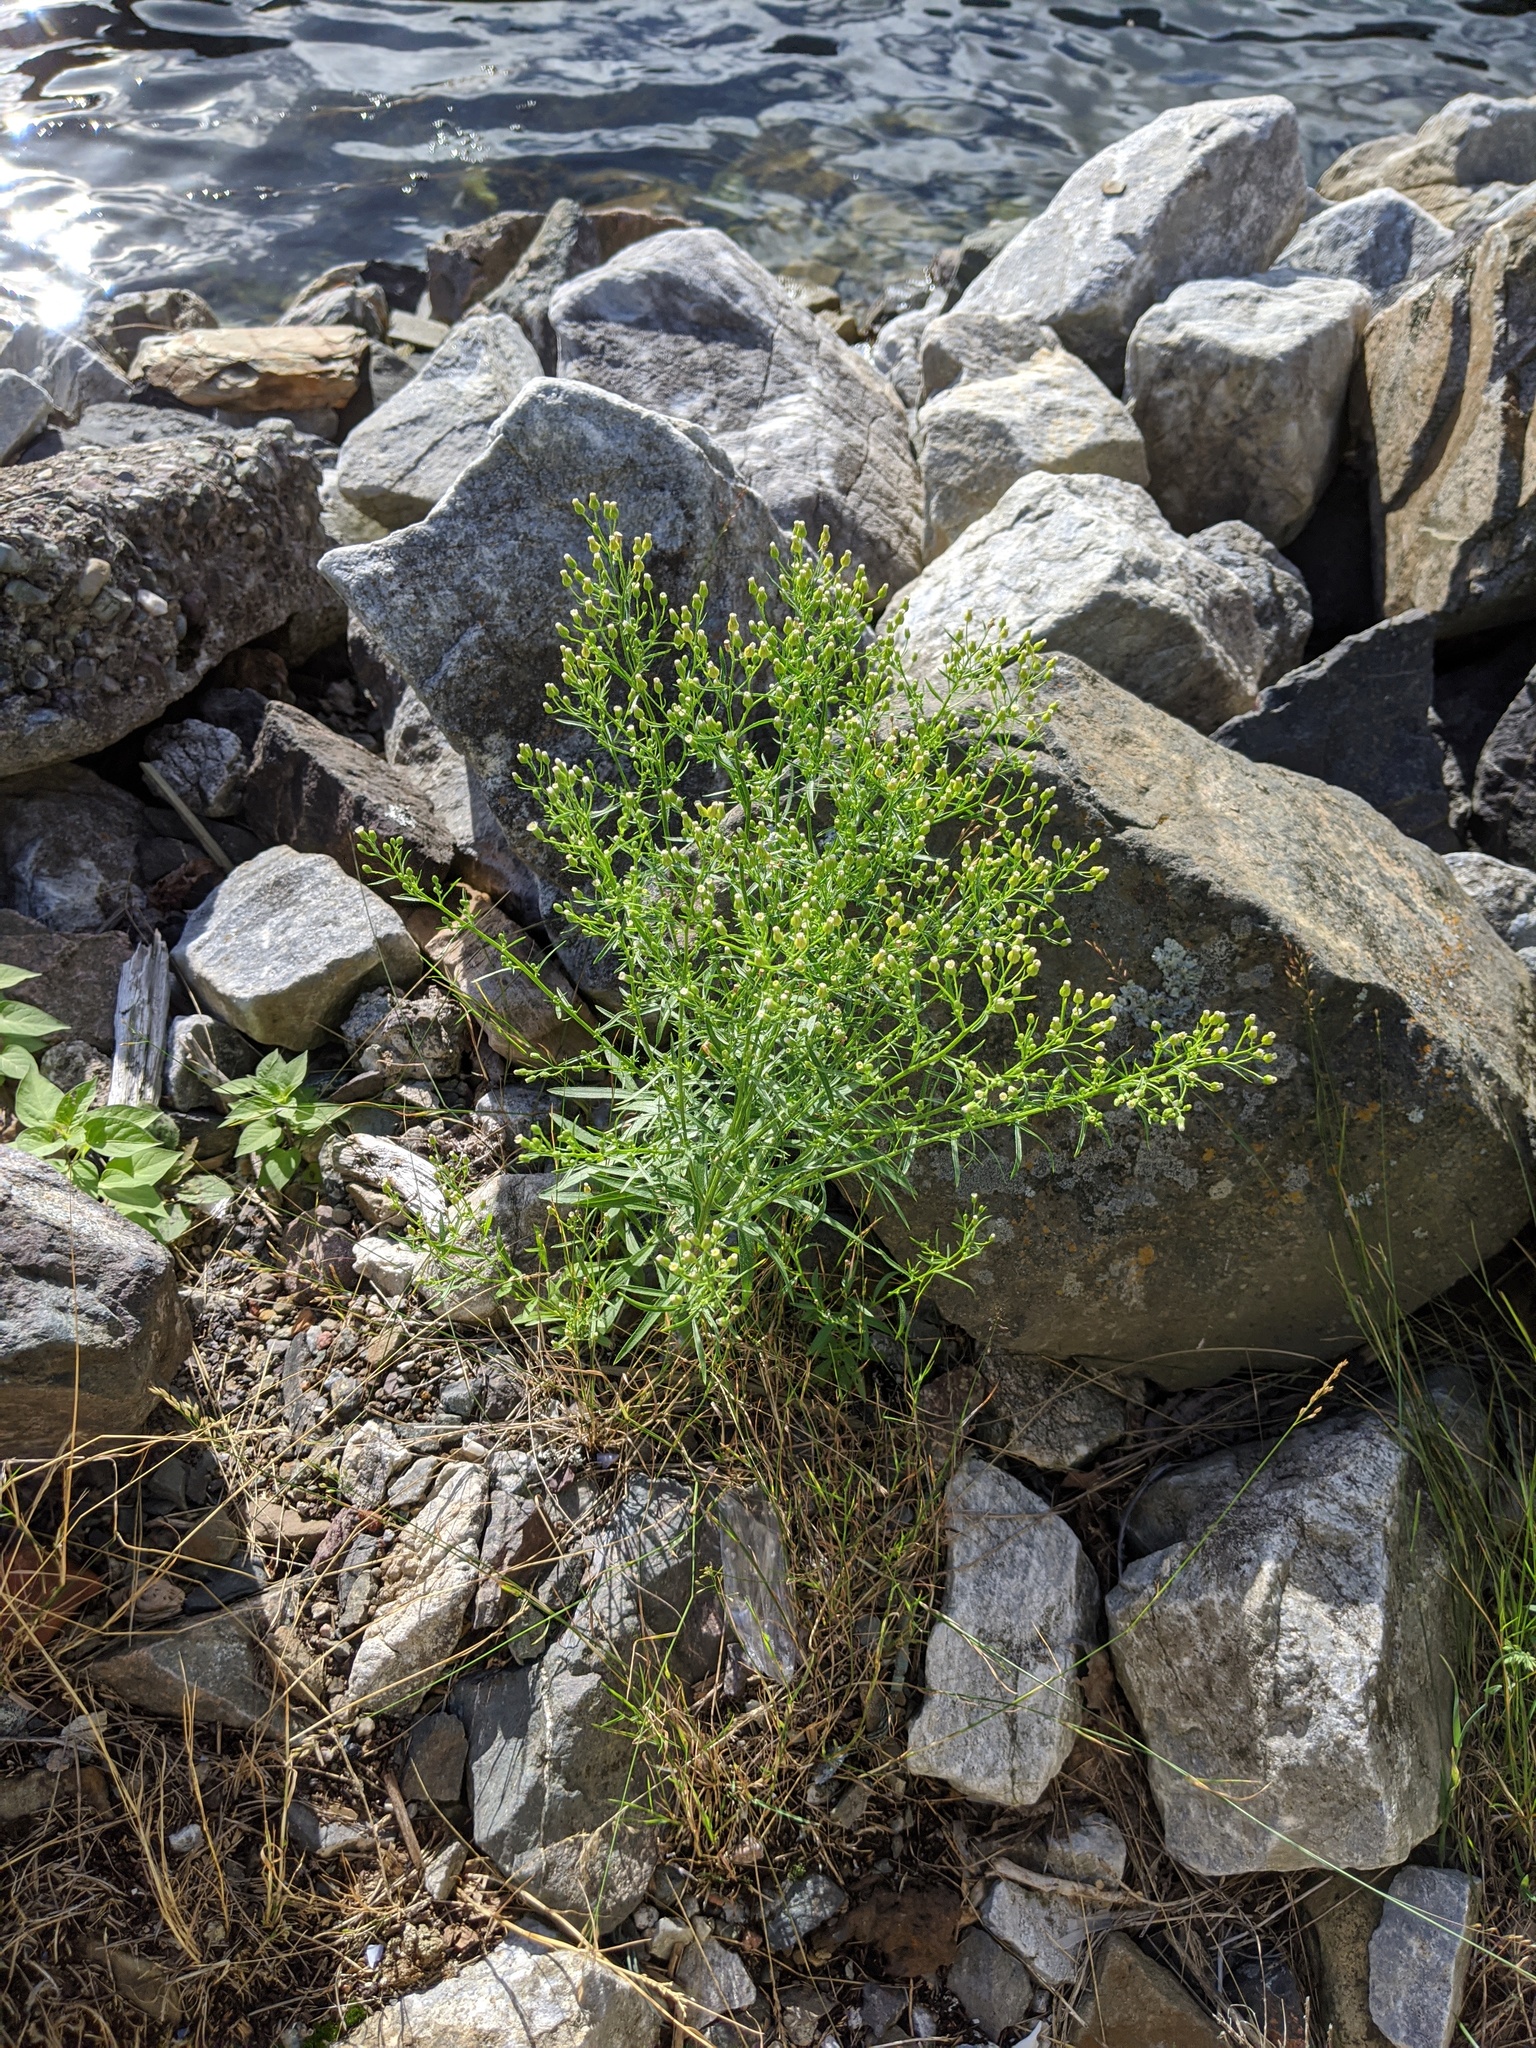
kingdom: Plantae
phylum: Tracheophyta
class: Magnoliopsida
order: Asterales
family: Asteraceae
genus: Erigeron
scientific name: Erigeron canadensis
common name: Canadian fleabane
